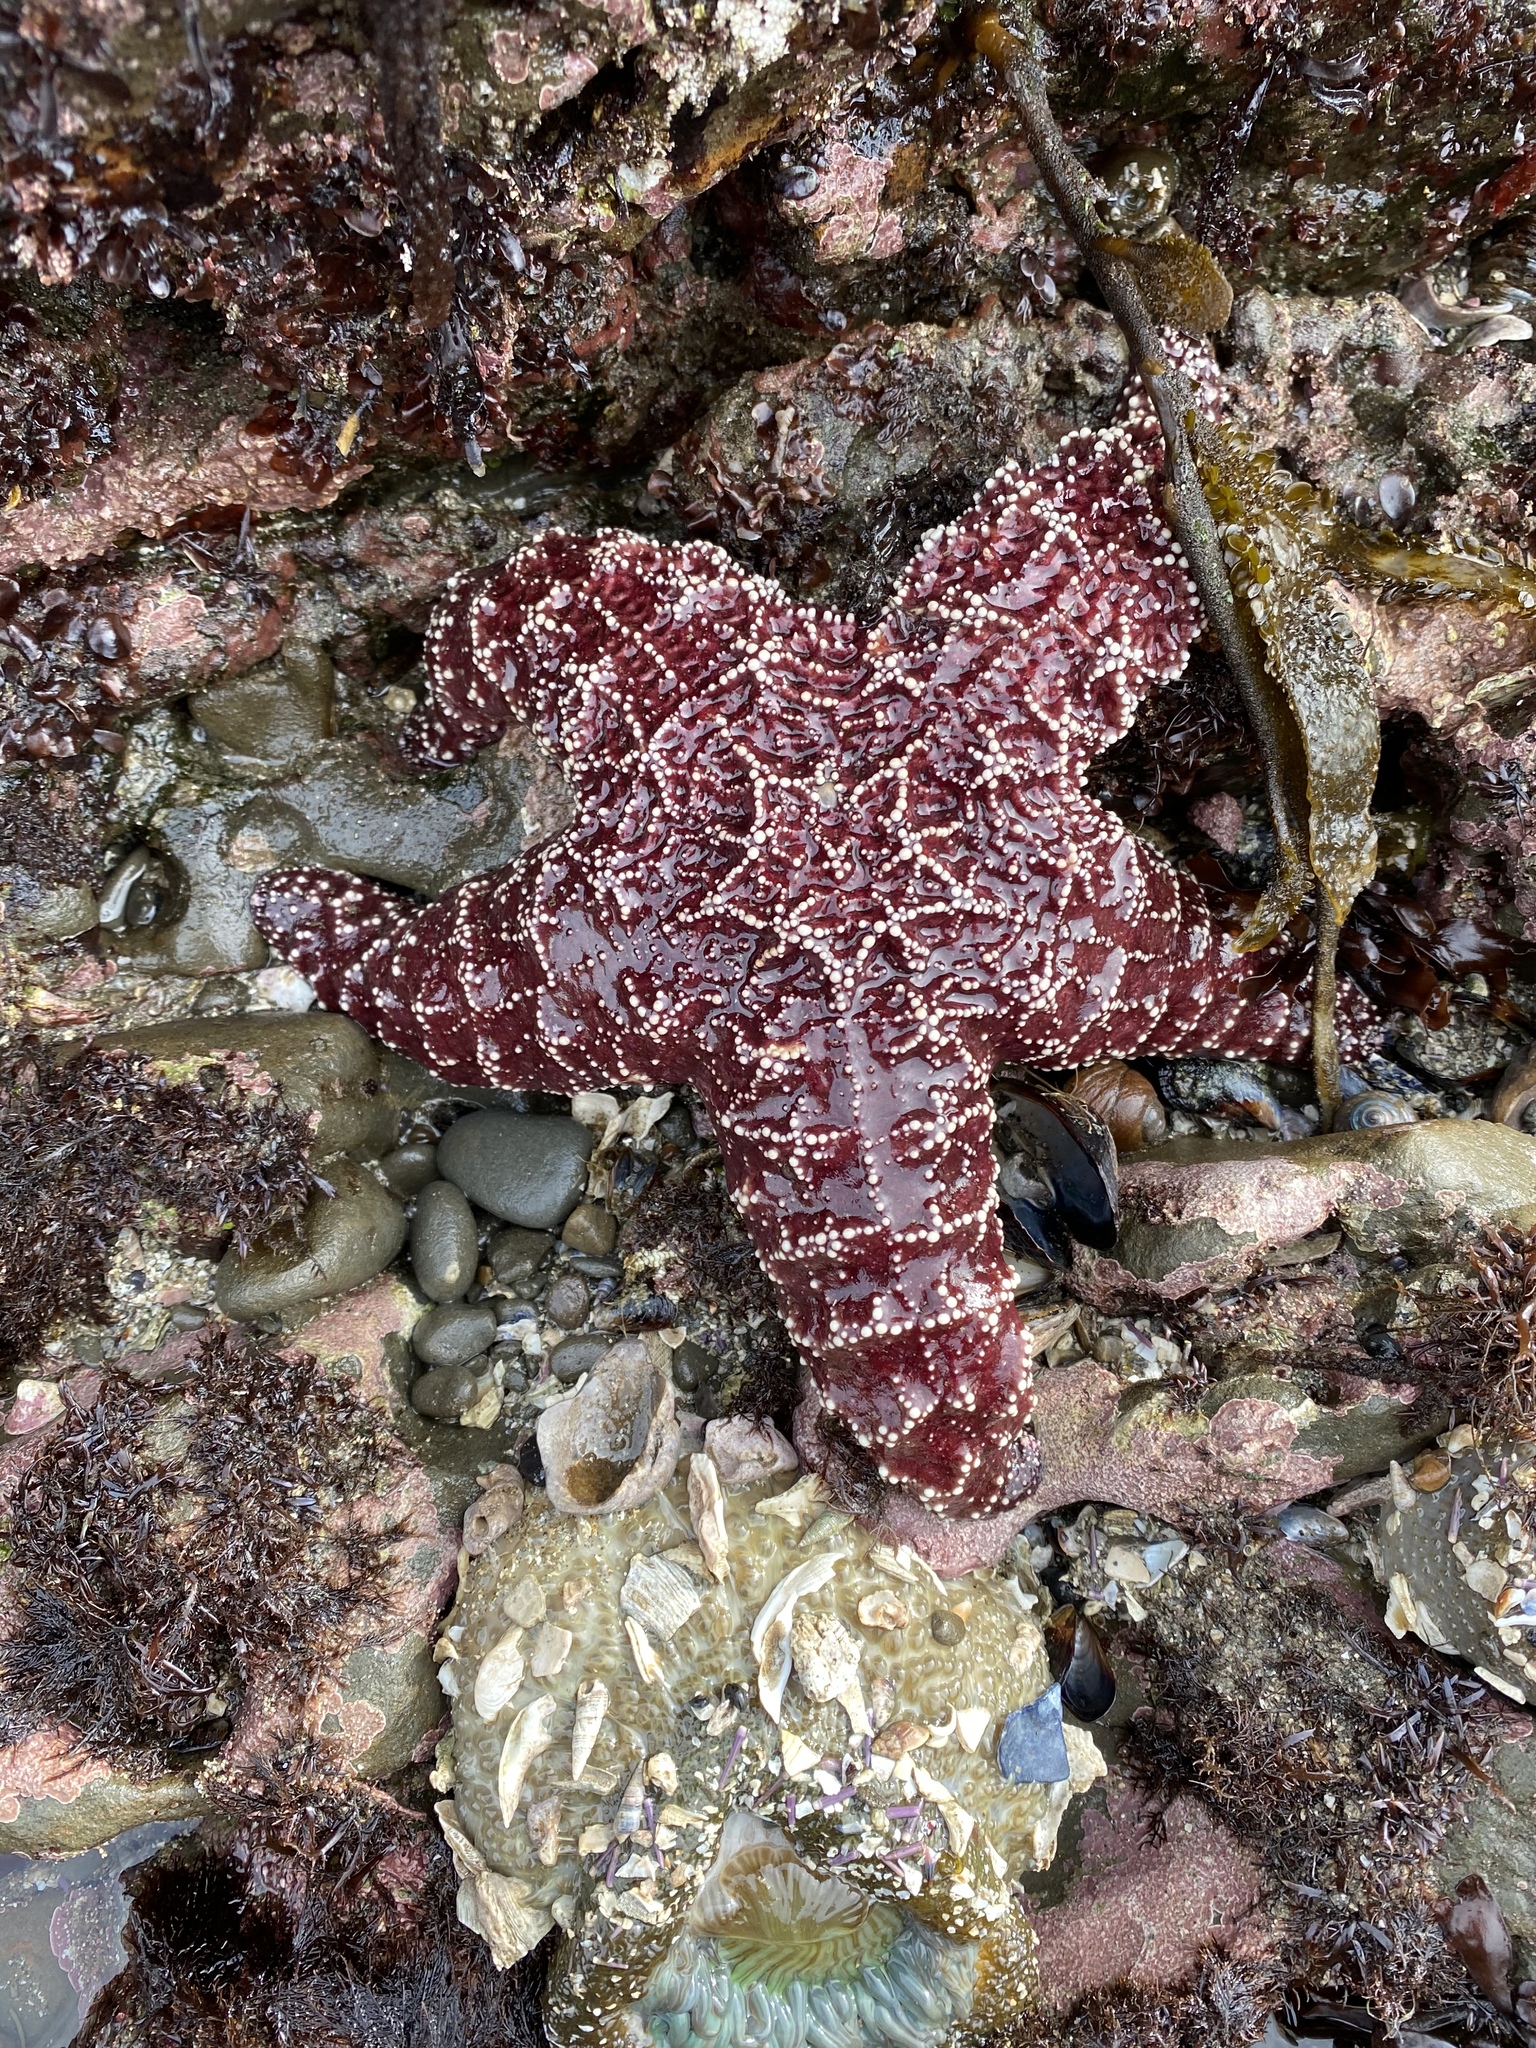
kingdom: Animalia
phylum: Echinodermata
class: Asteroidea
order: Forcipulatida
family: Asteriidae
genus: Pisaster
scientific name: Pisaster ochraceus
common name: Ochre stars
